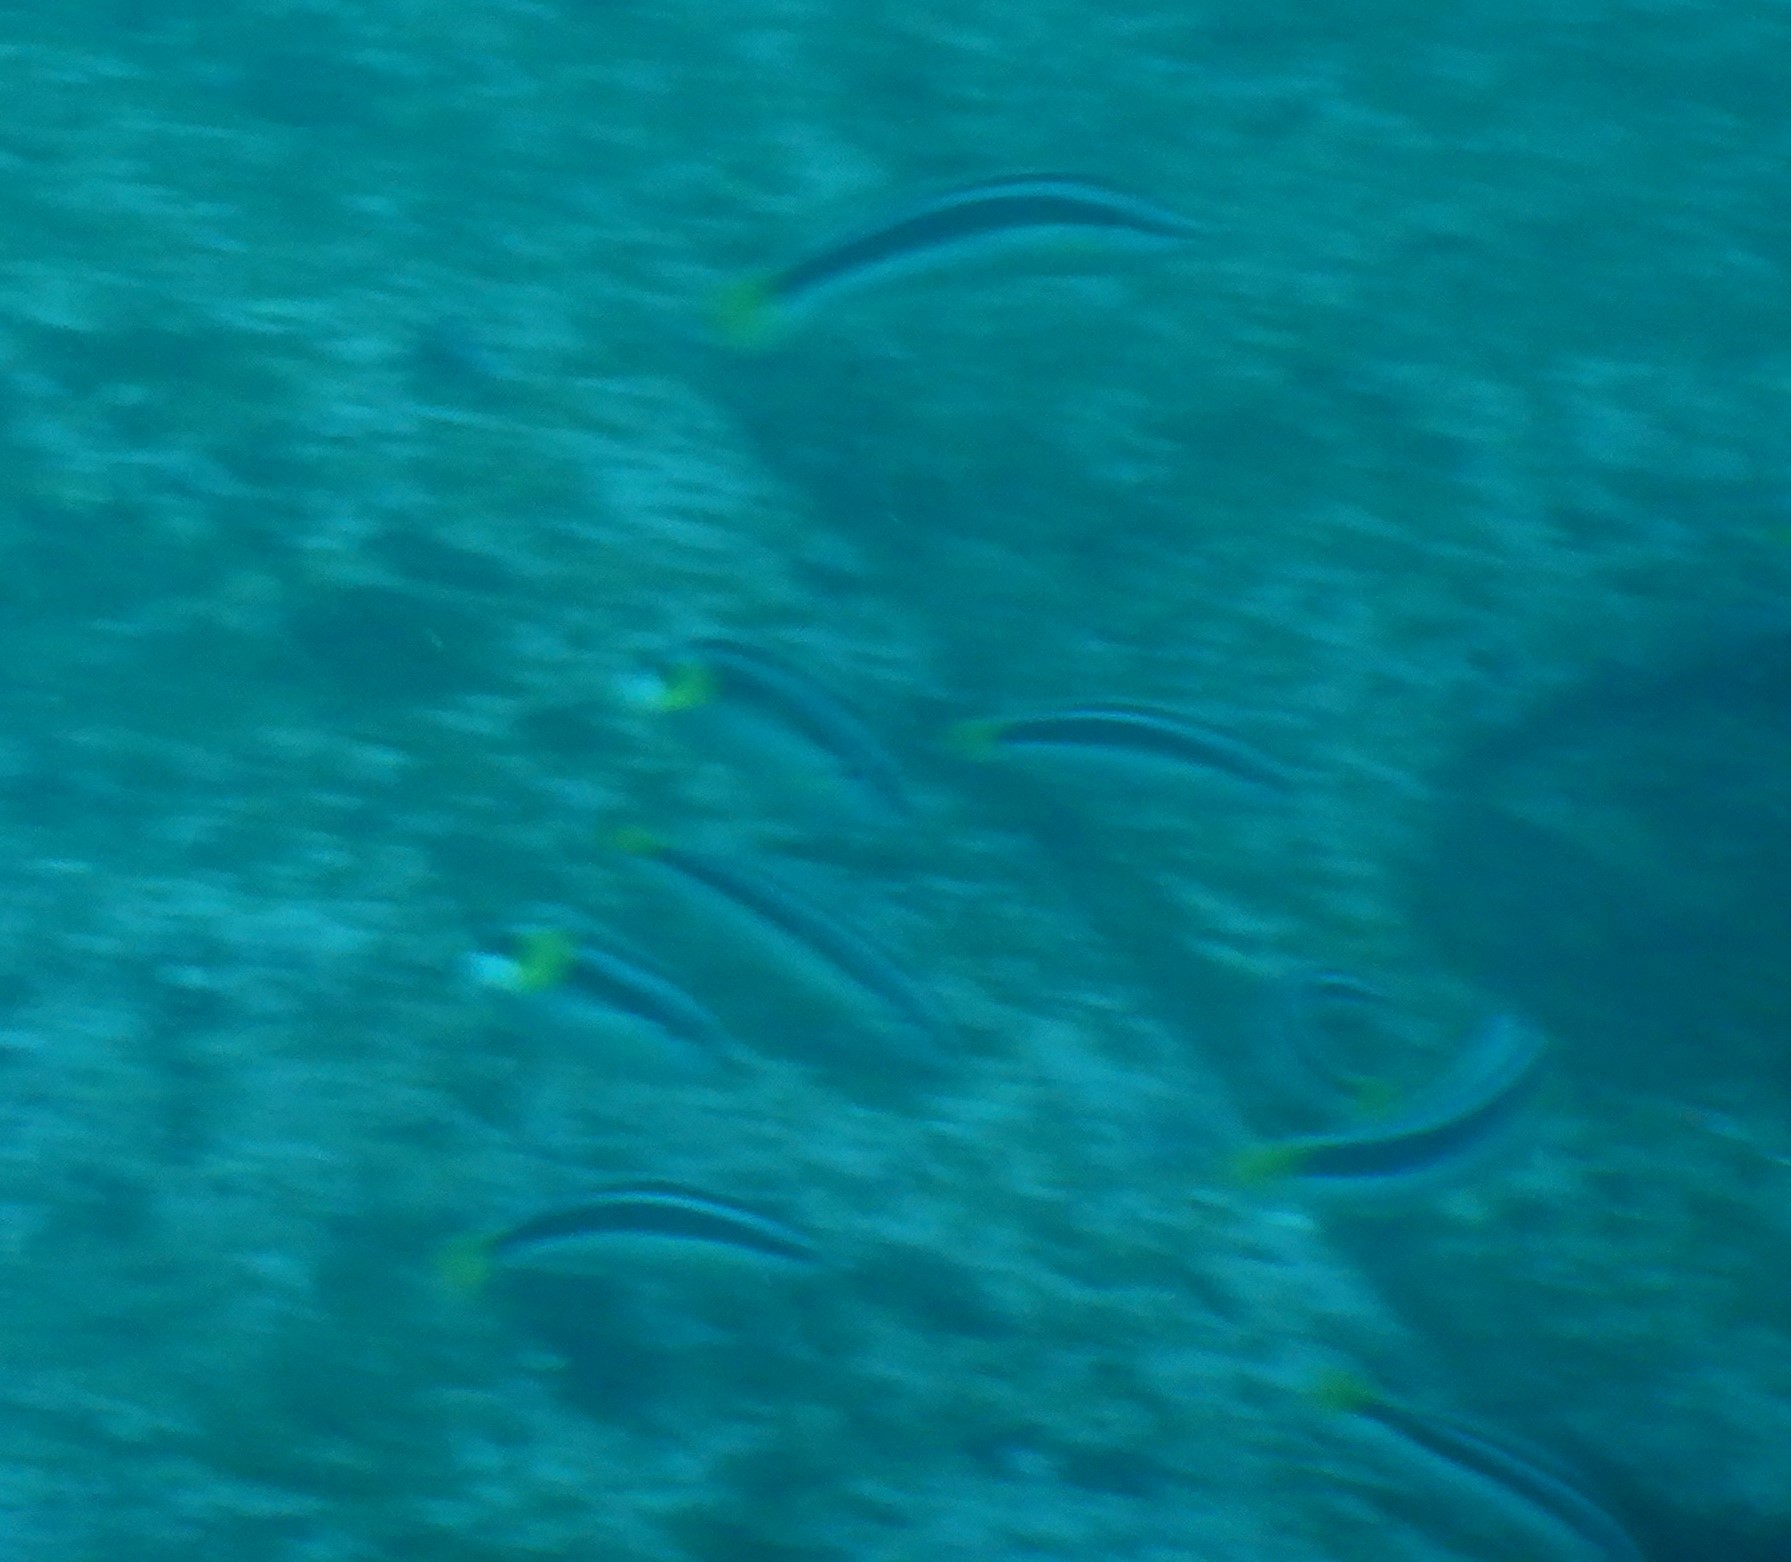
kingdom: Animalia
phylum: Chordata
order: Perciformes
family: Labridae
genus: Coris
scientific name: Coris picta
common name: Combfish
